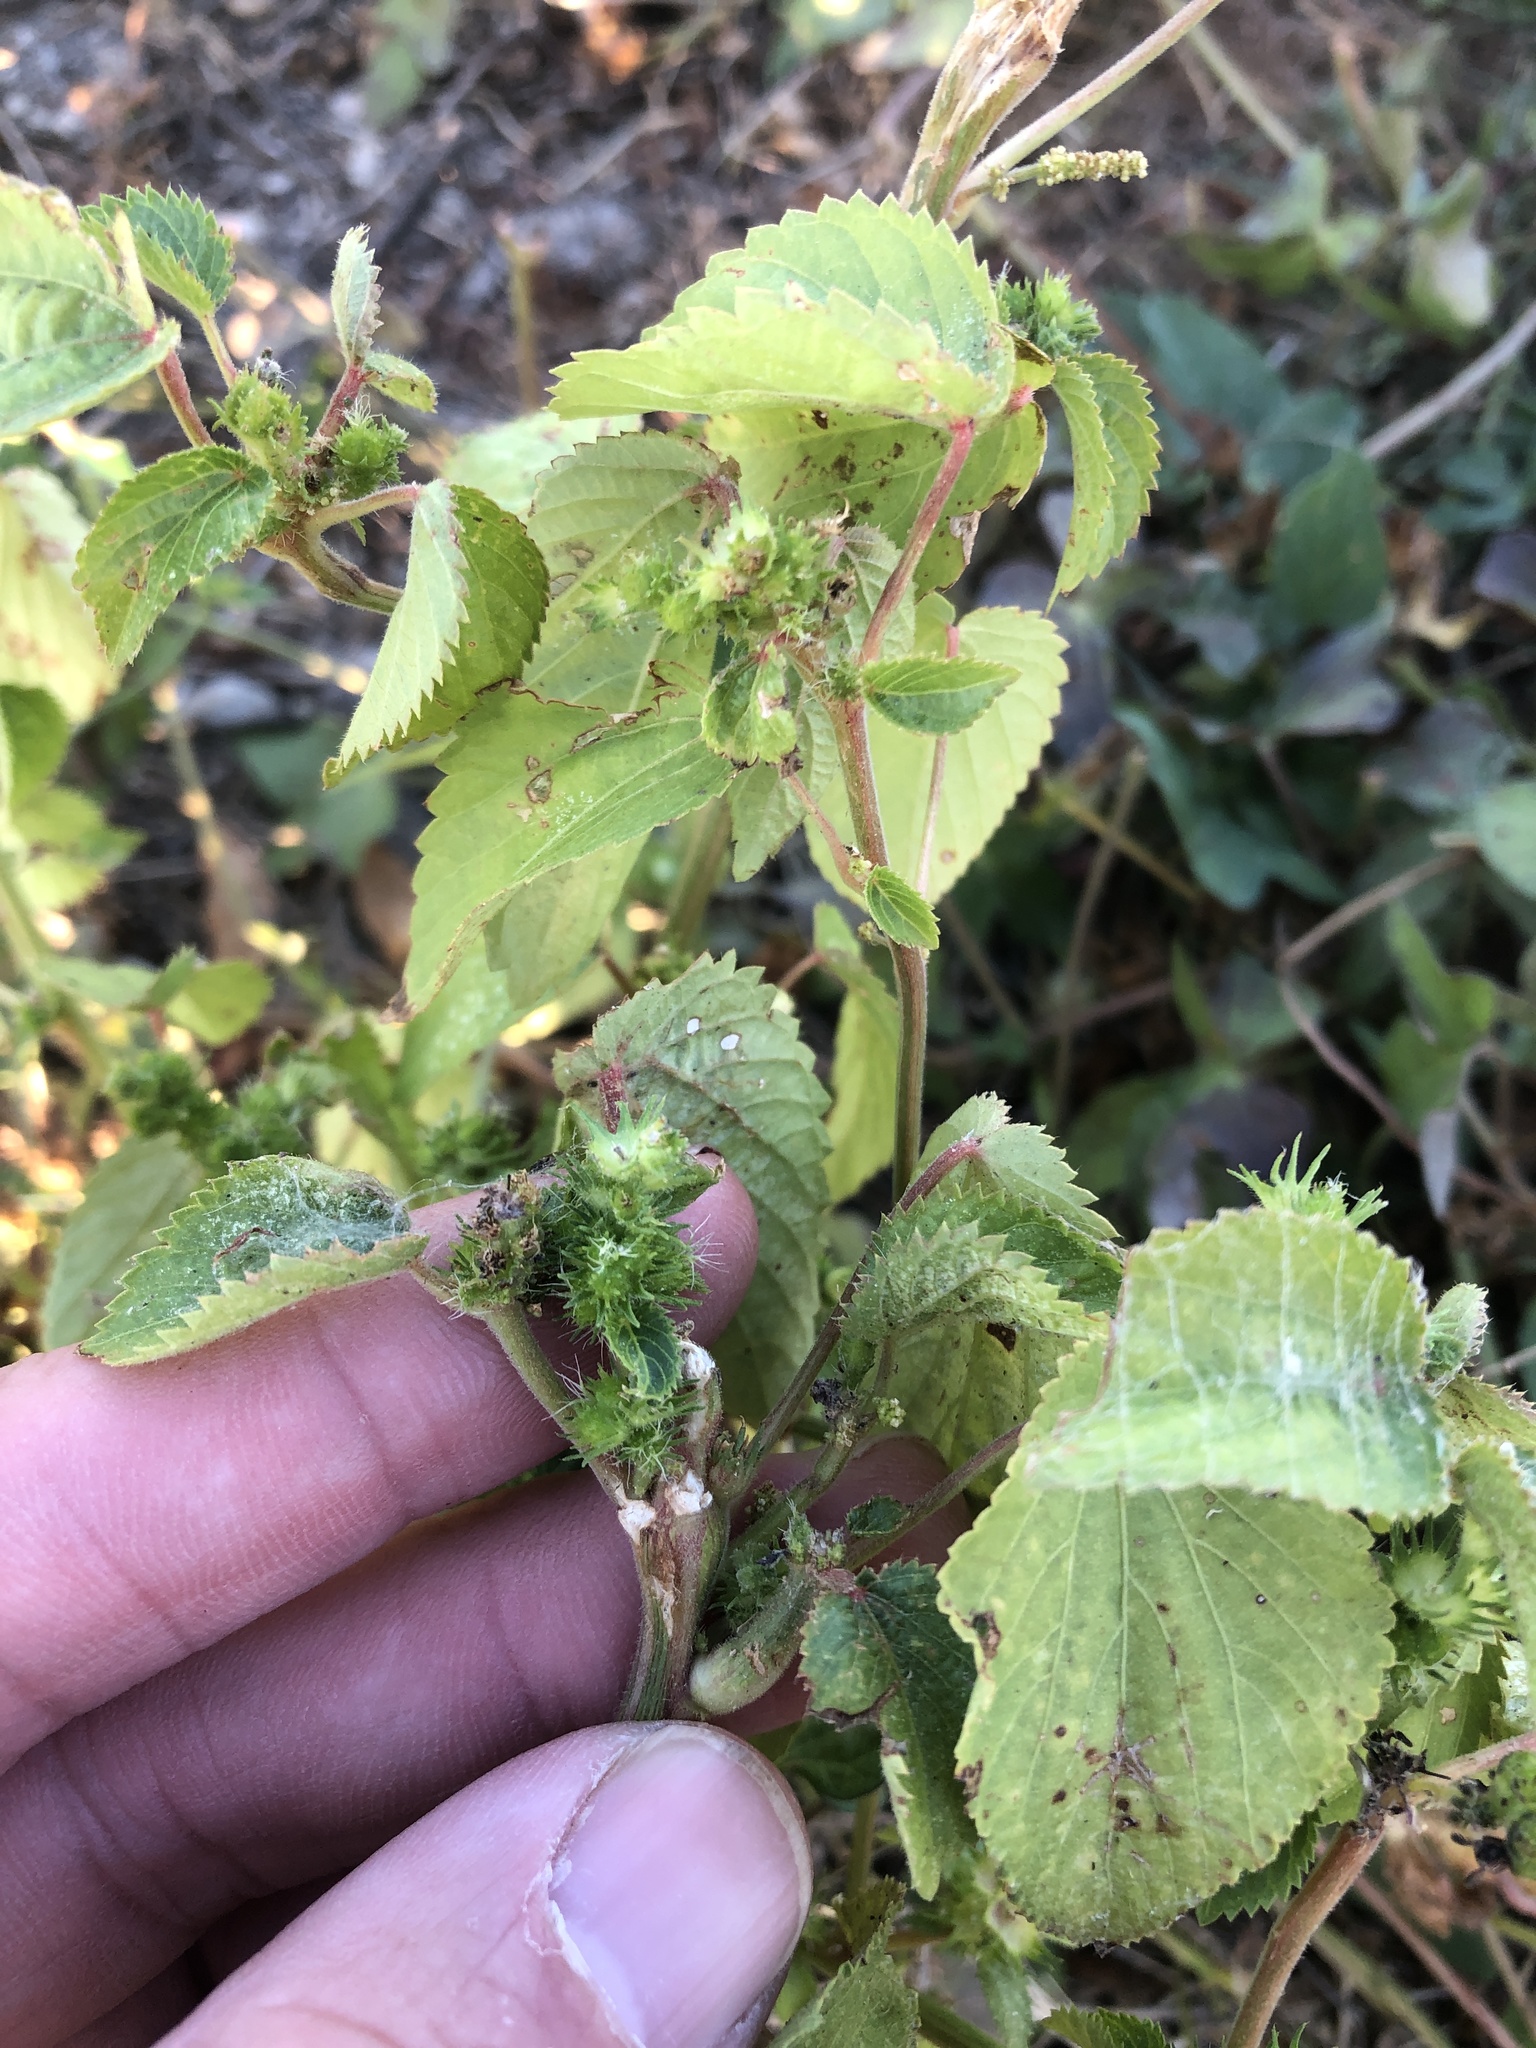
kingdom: Plantae
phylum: Tracheophyta
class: Magnoliopsida
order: Malpighiales
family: Euphorbiaceae
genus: Acalypha
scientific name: Acalypha ostryifolia
